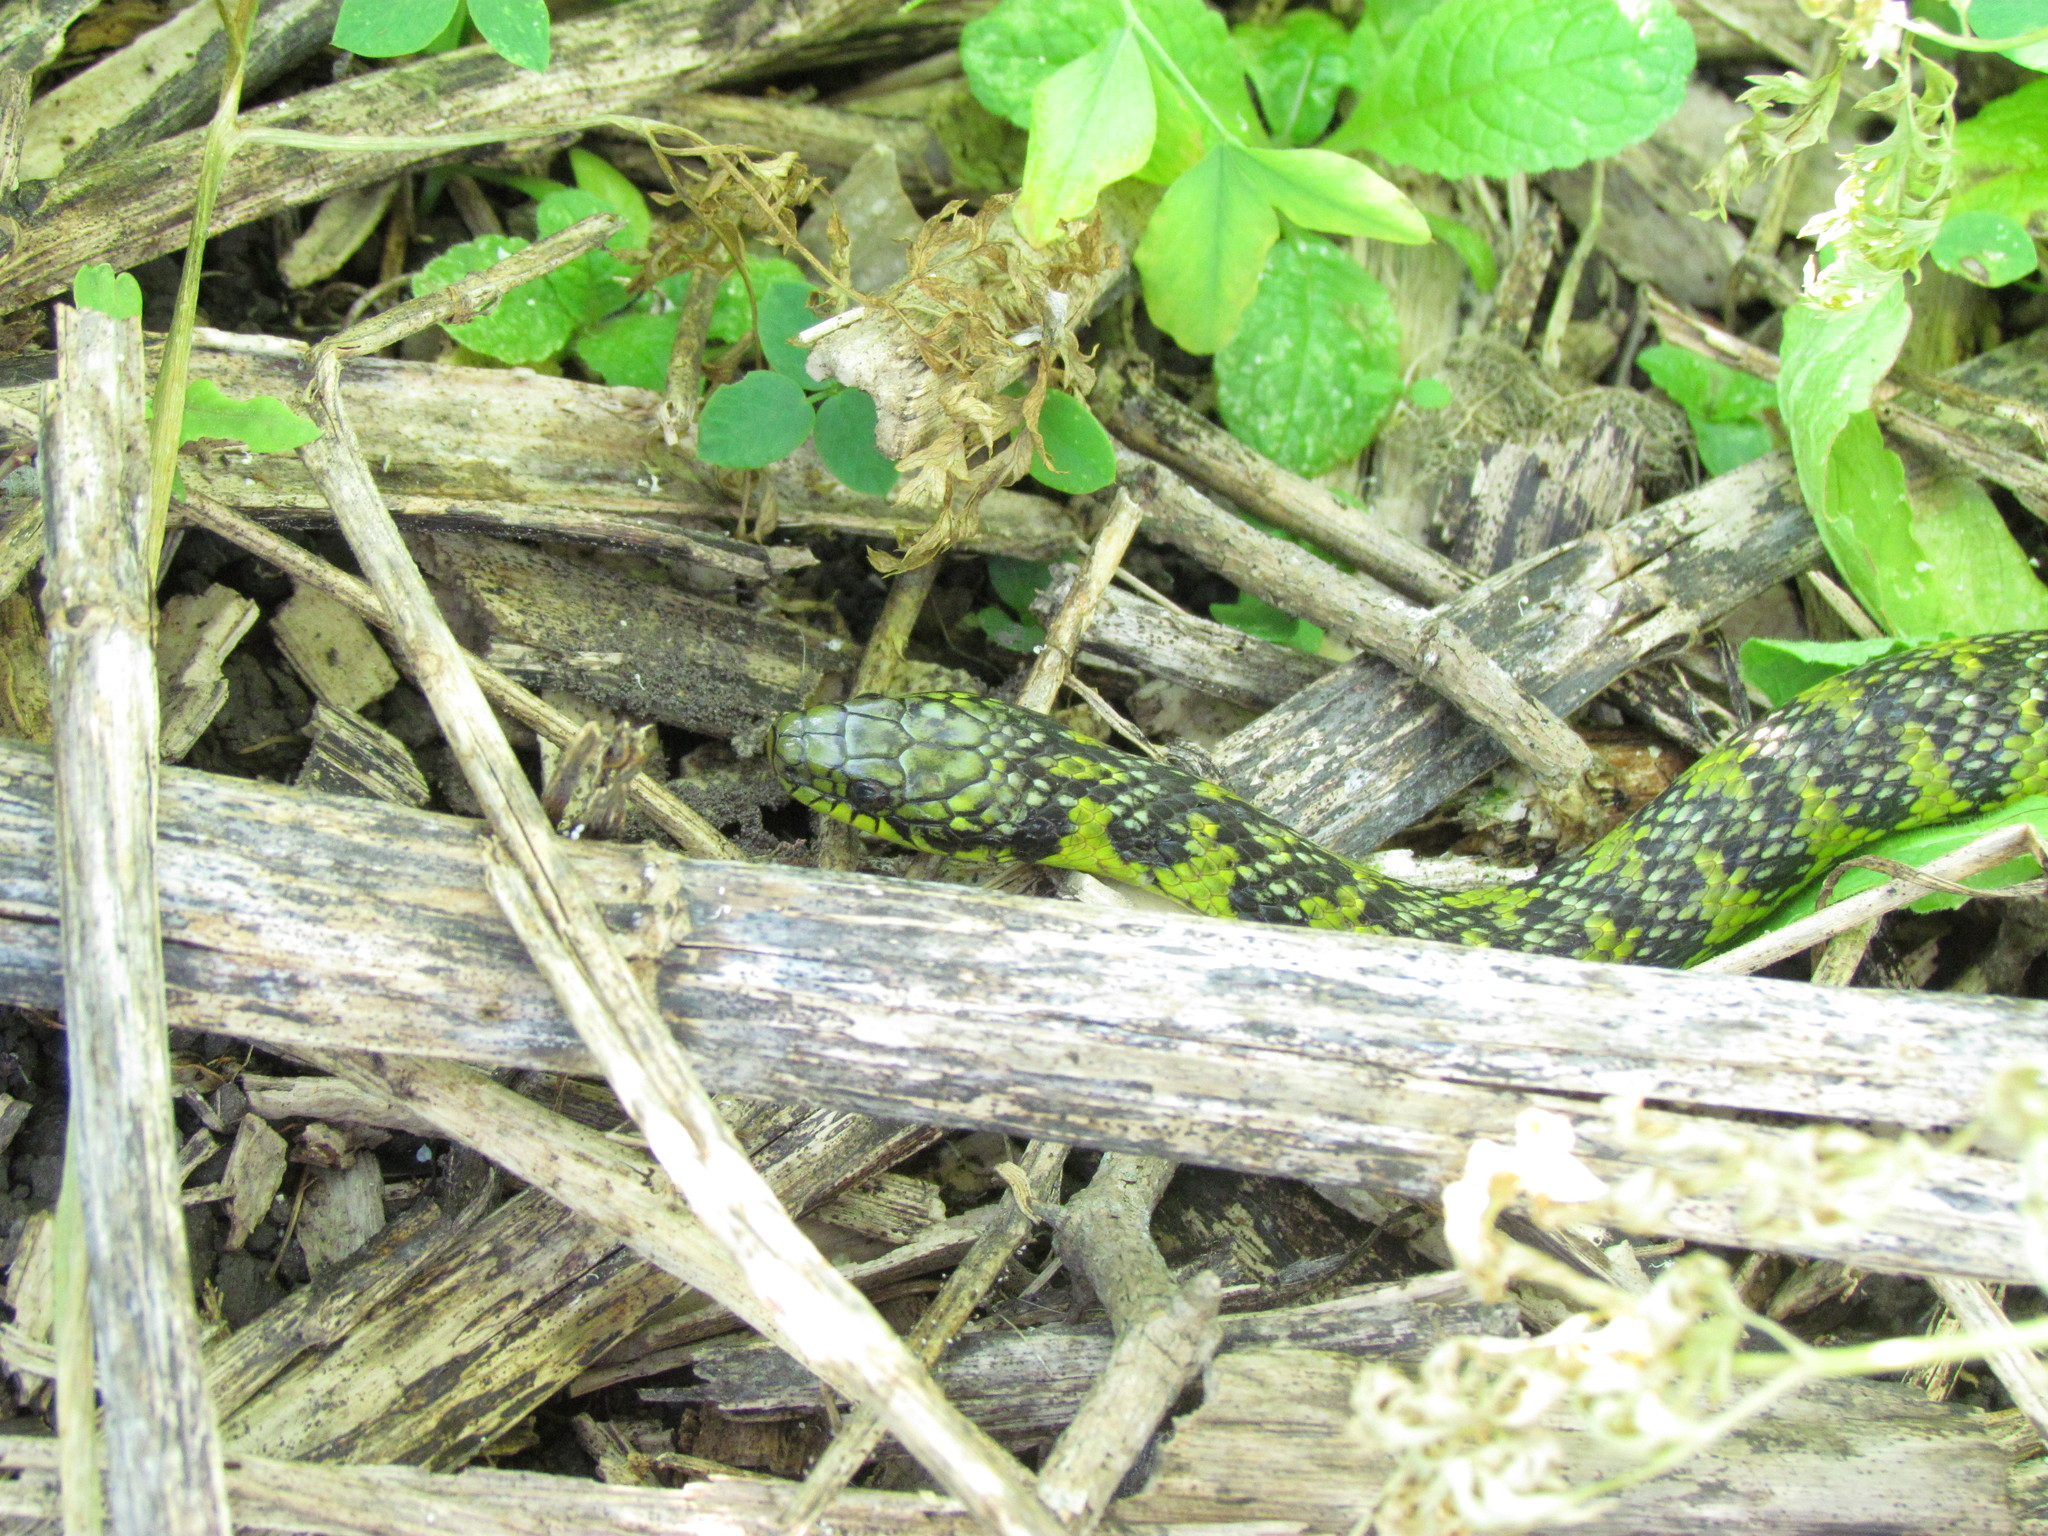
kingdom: Animalia
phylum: Chordata
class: Squamata
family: Colubridae
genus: Erythrolamprus
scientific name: Erythrolamprus poecilogyrus
